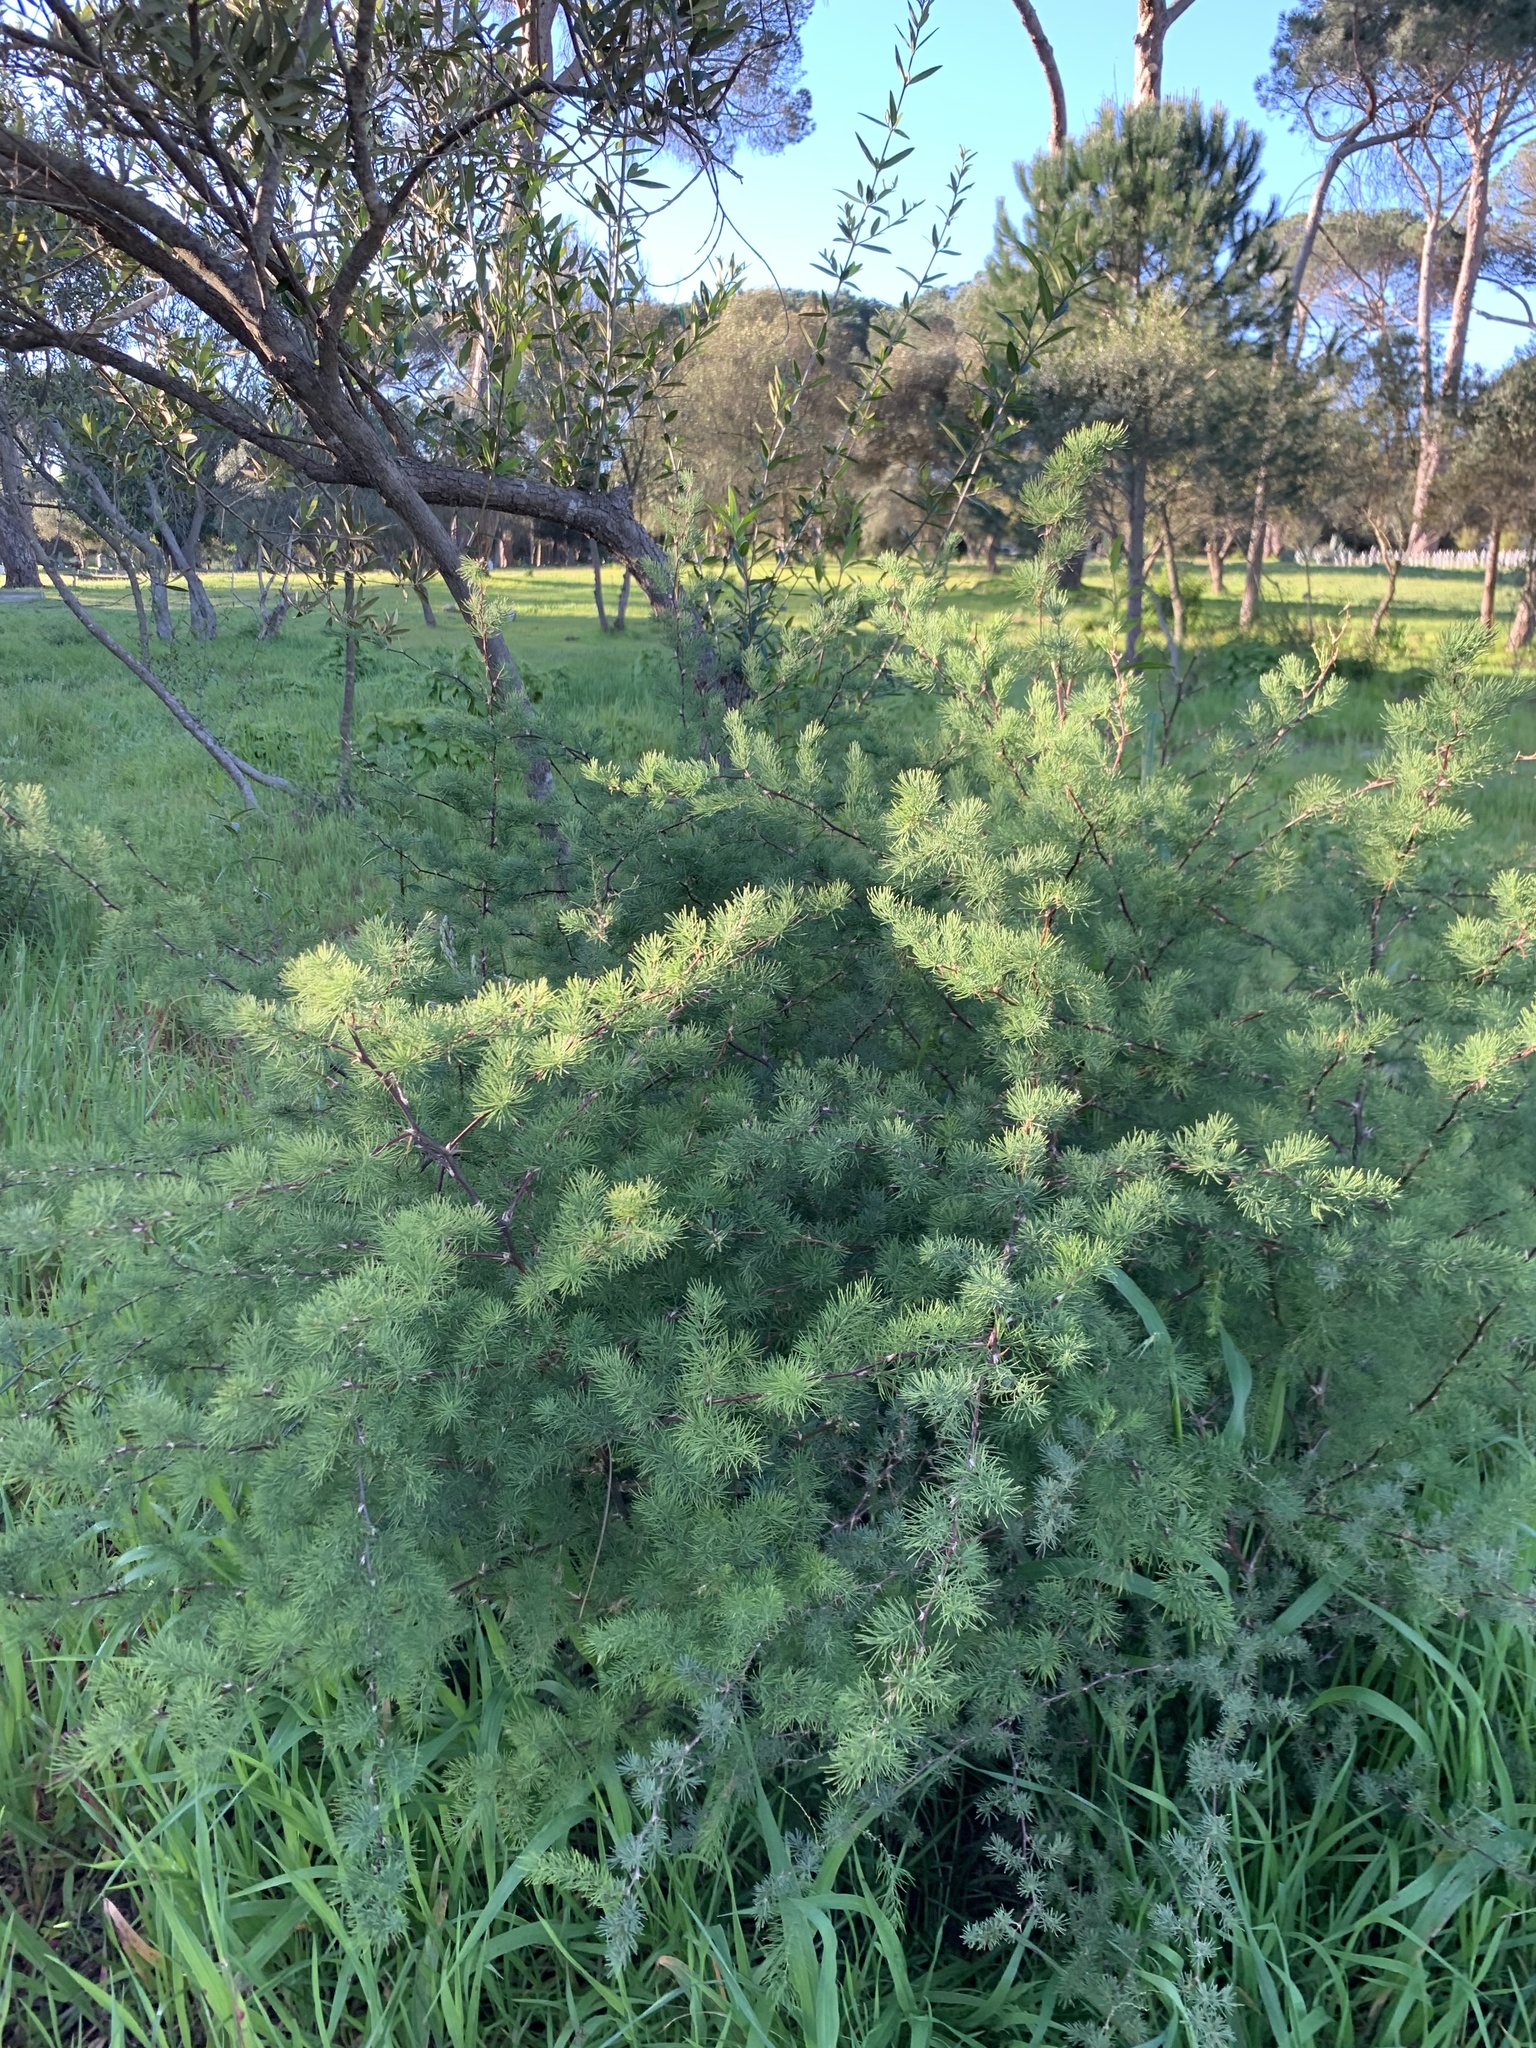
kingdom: Plantae
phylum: Tracheophyta
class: Liliopsida
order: Asparagales
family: Asparagaceae
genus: Asparagus
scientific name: Asparagus rubicundus
